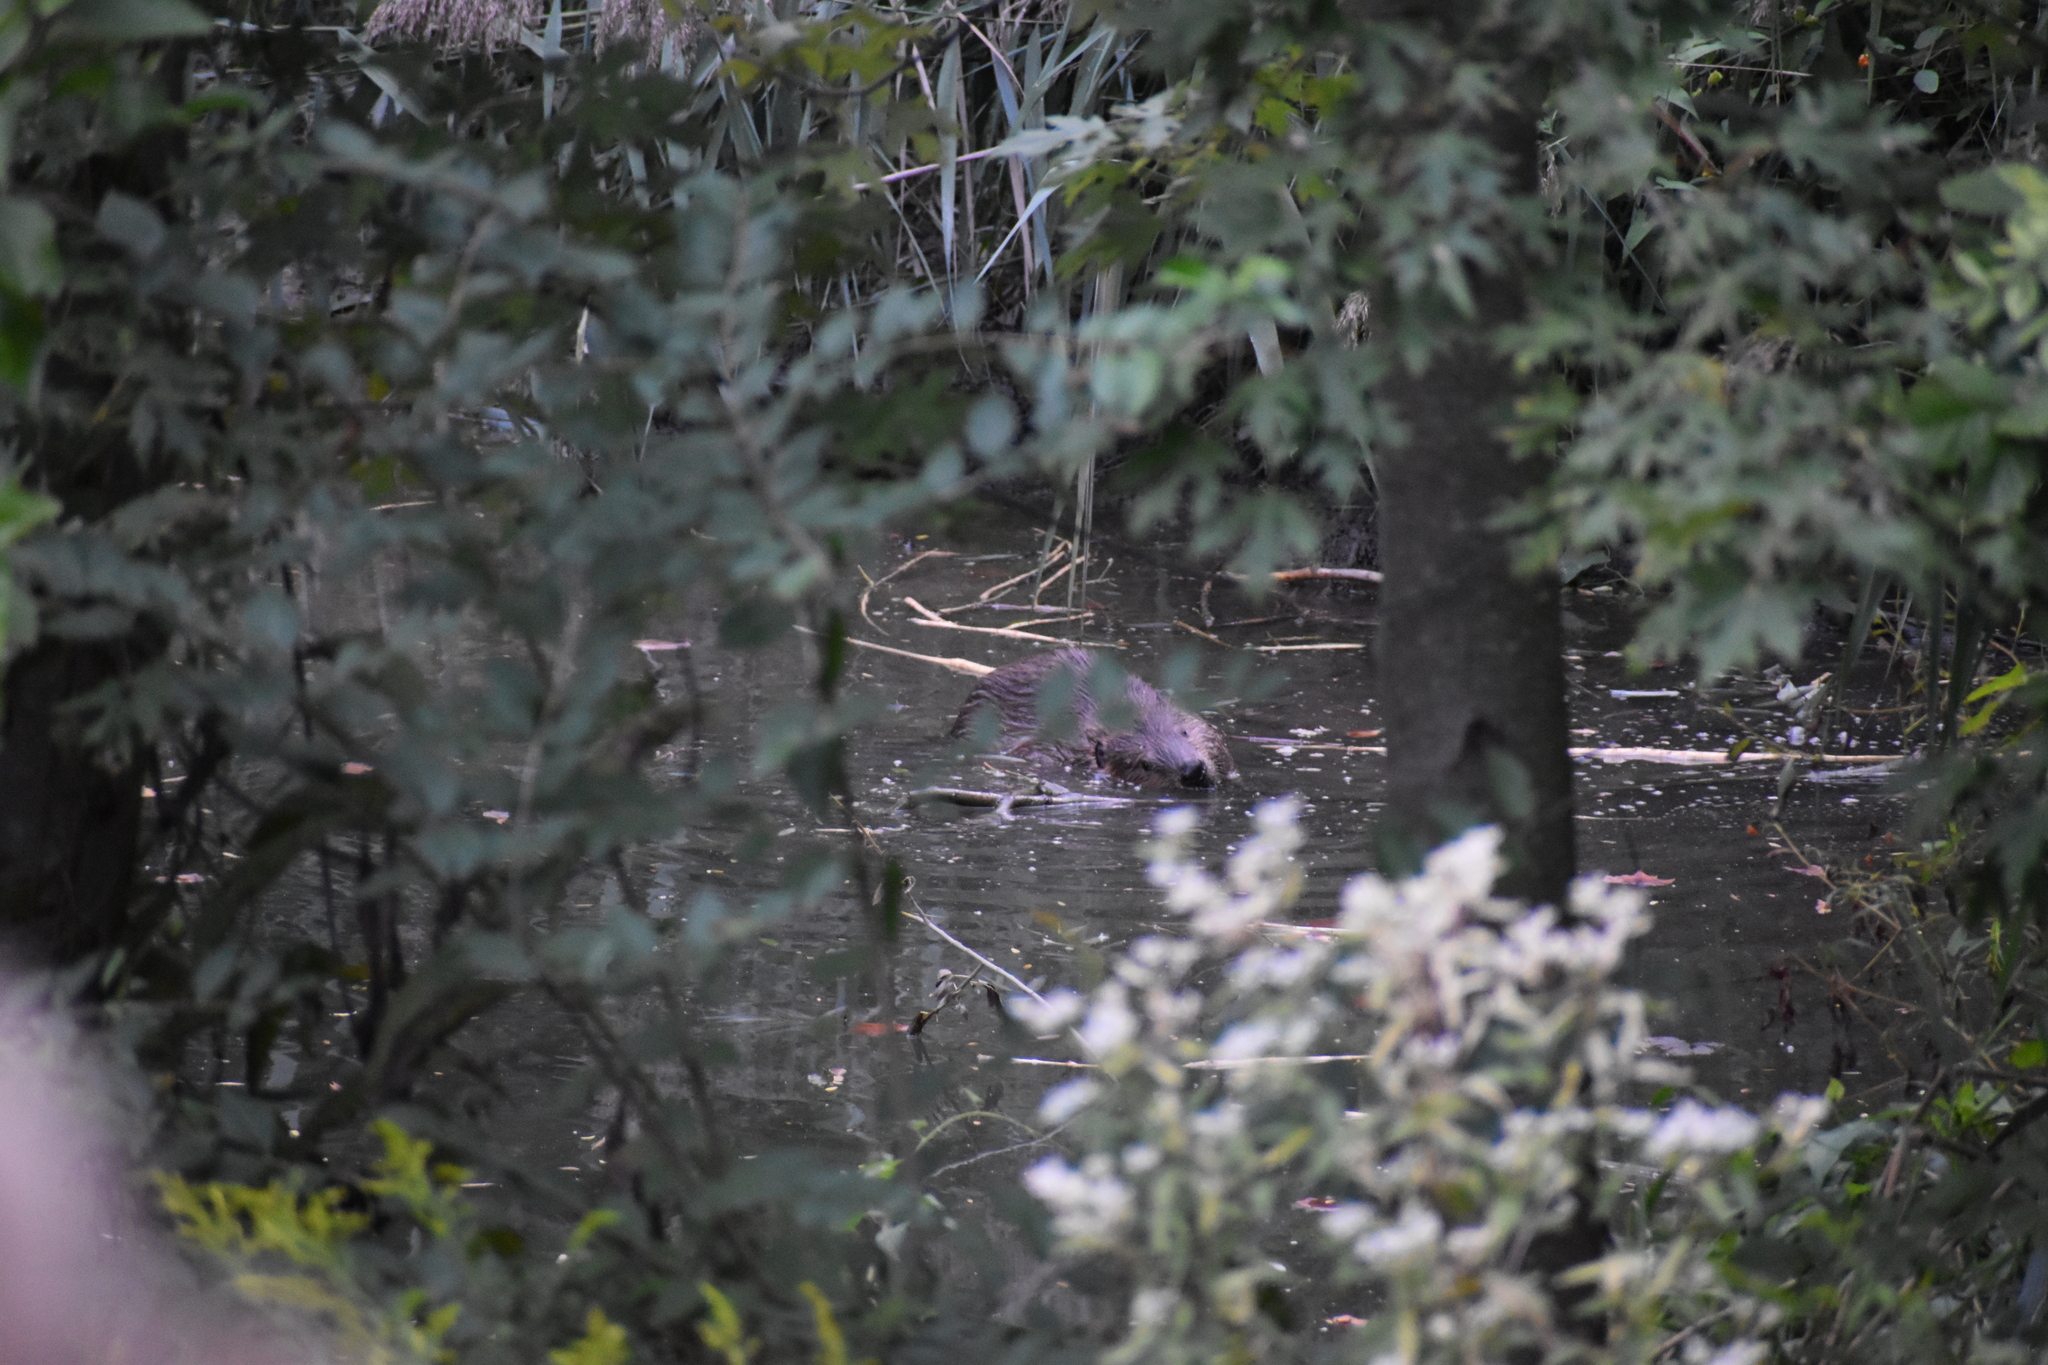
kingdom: Animalia
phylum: Chordata
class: Mammalia
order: Rodentia
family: Castoridae
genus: Castor
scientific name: Castor canadensis
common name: American beaver
